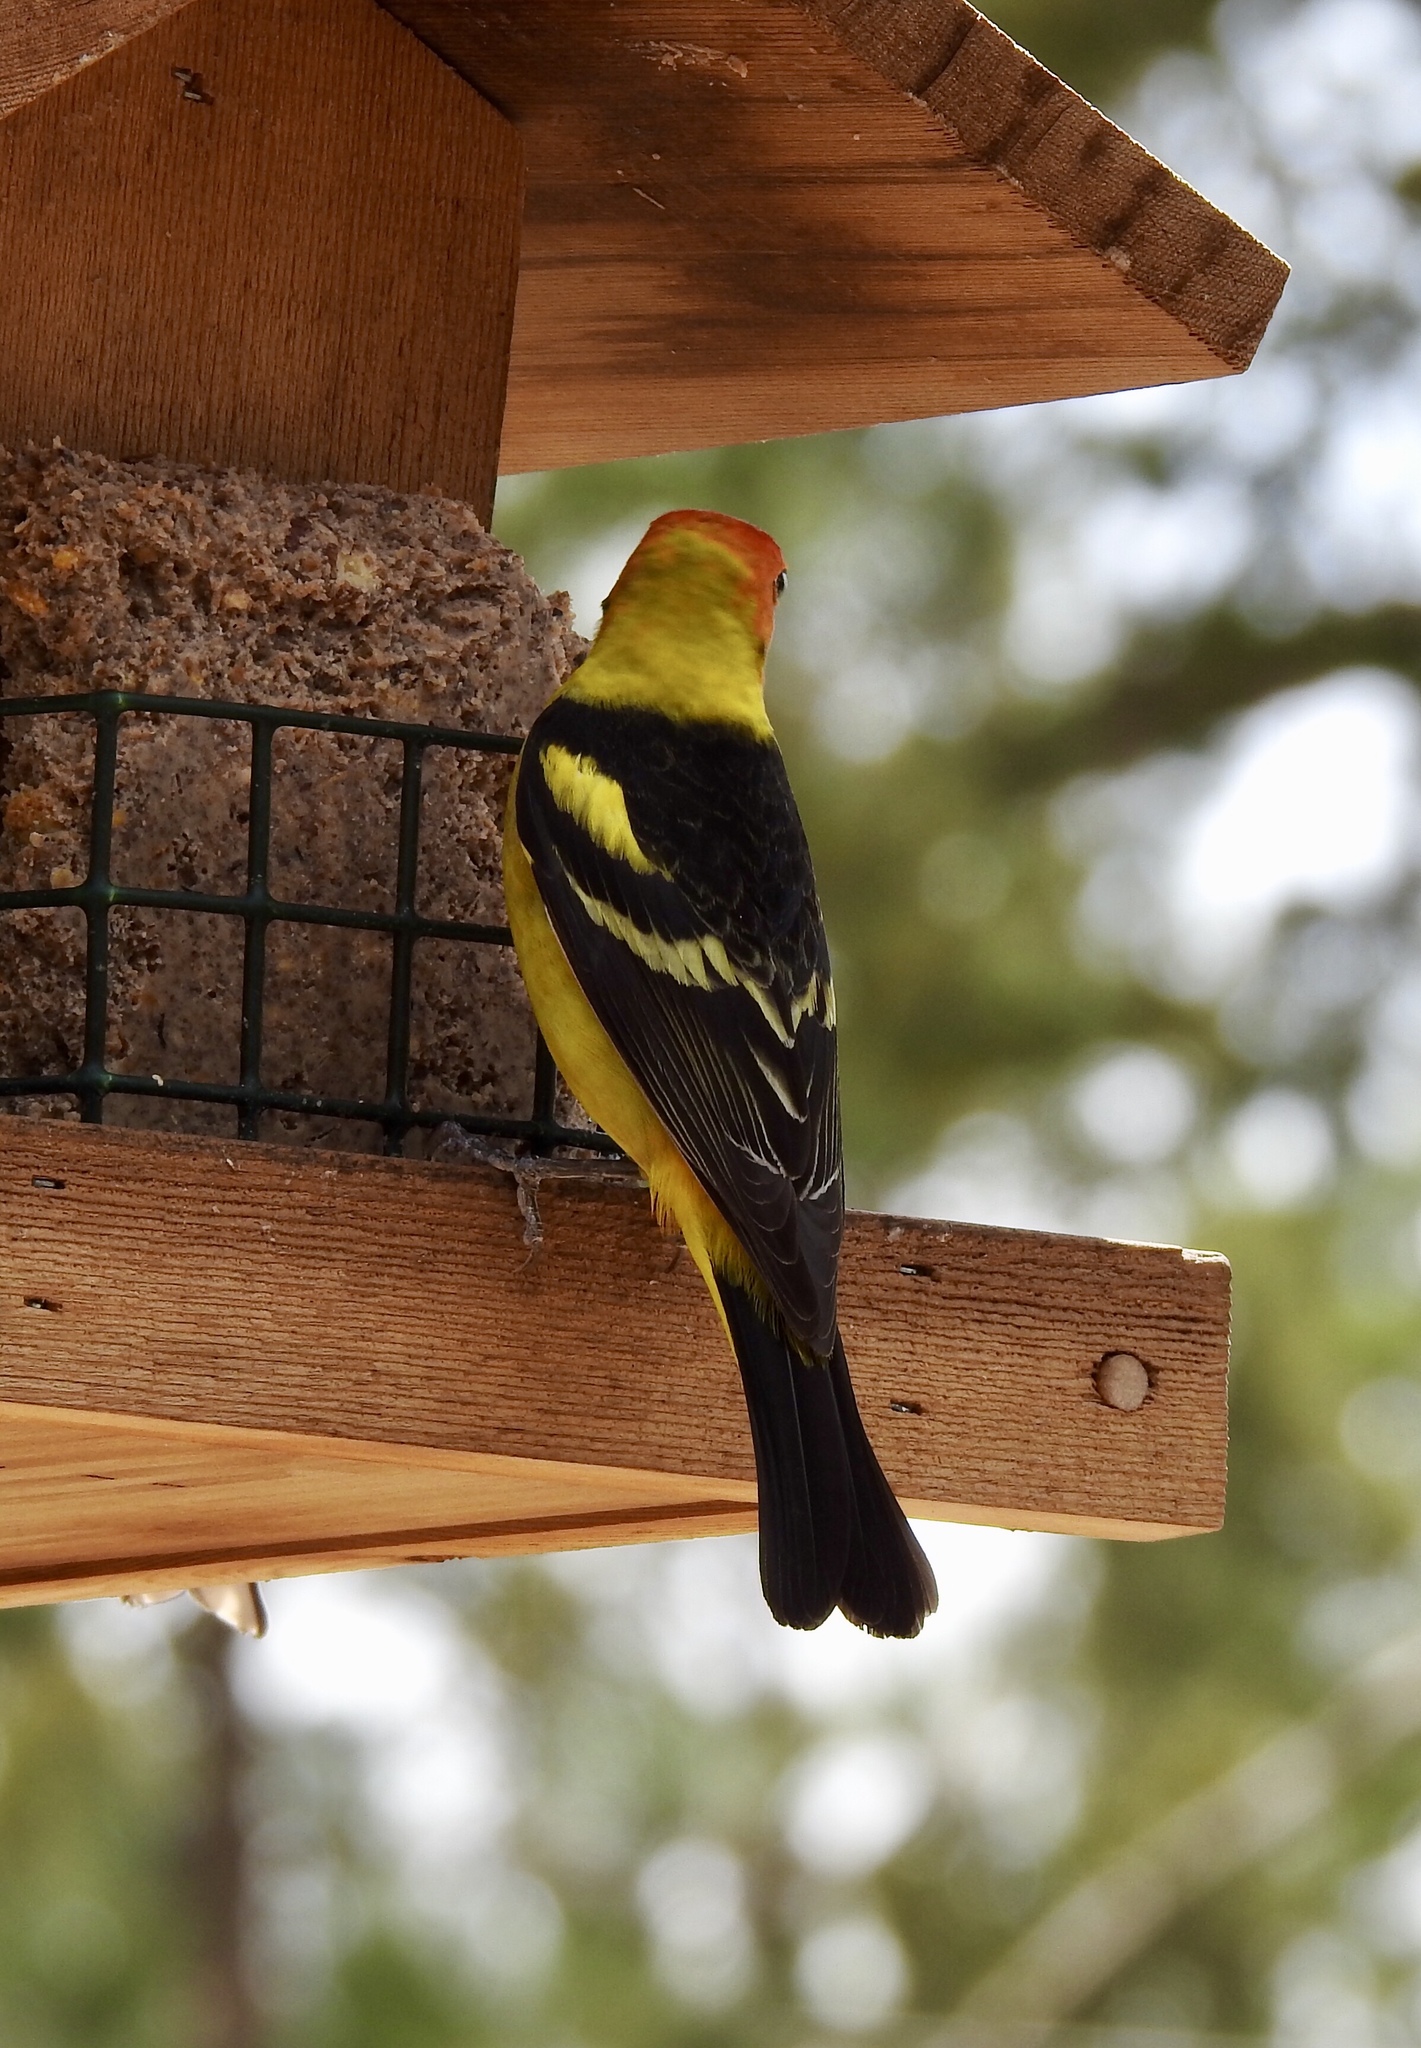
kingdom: Animalia
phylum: Chordata
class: Aves
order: Passeriformes
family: Cardinalidae
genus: Piranga
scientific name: Piranga ludoviciana
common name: Western tanager
